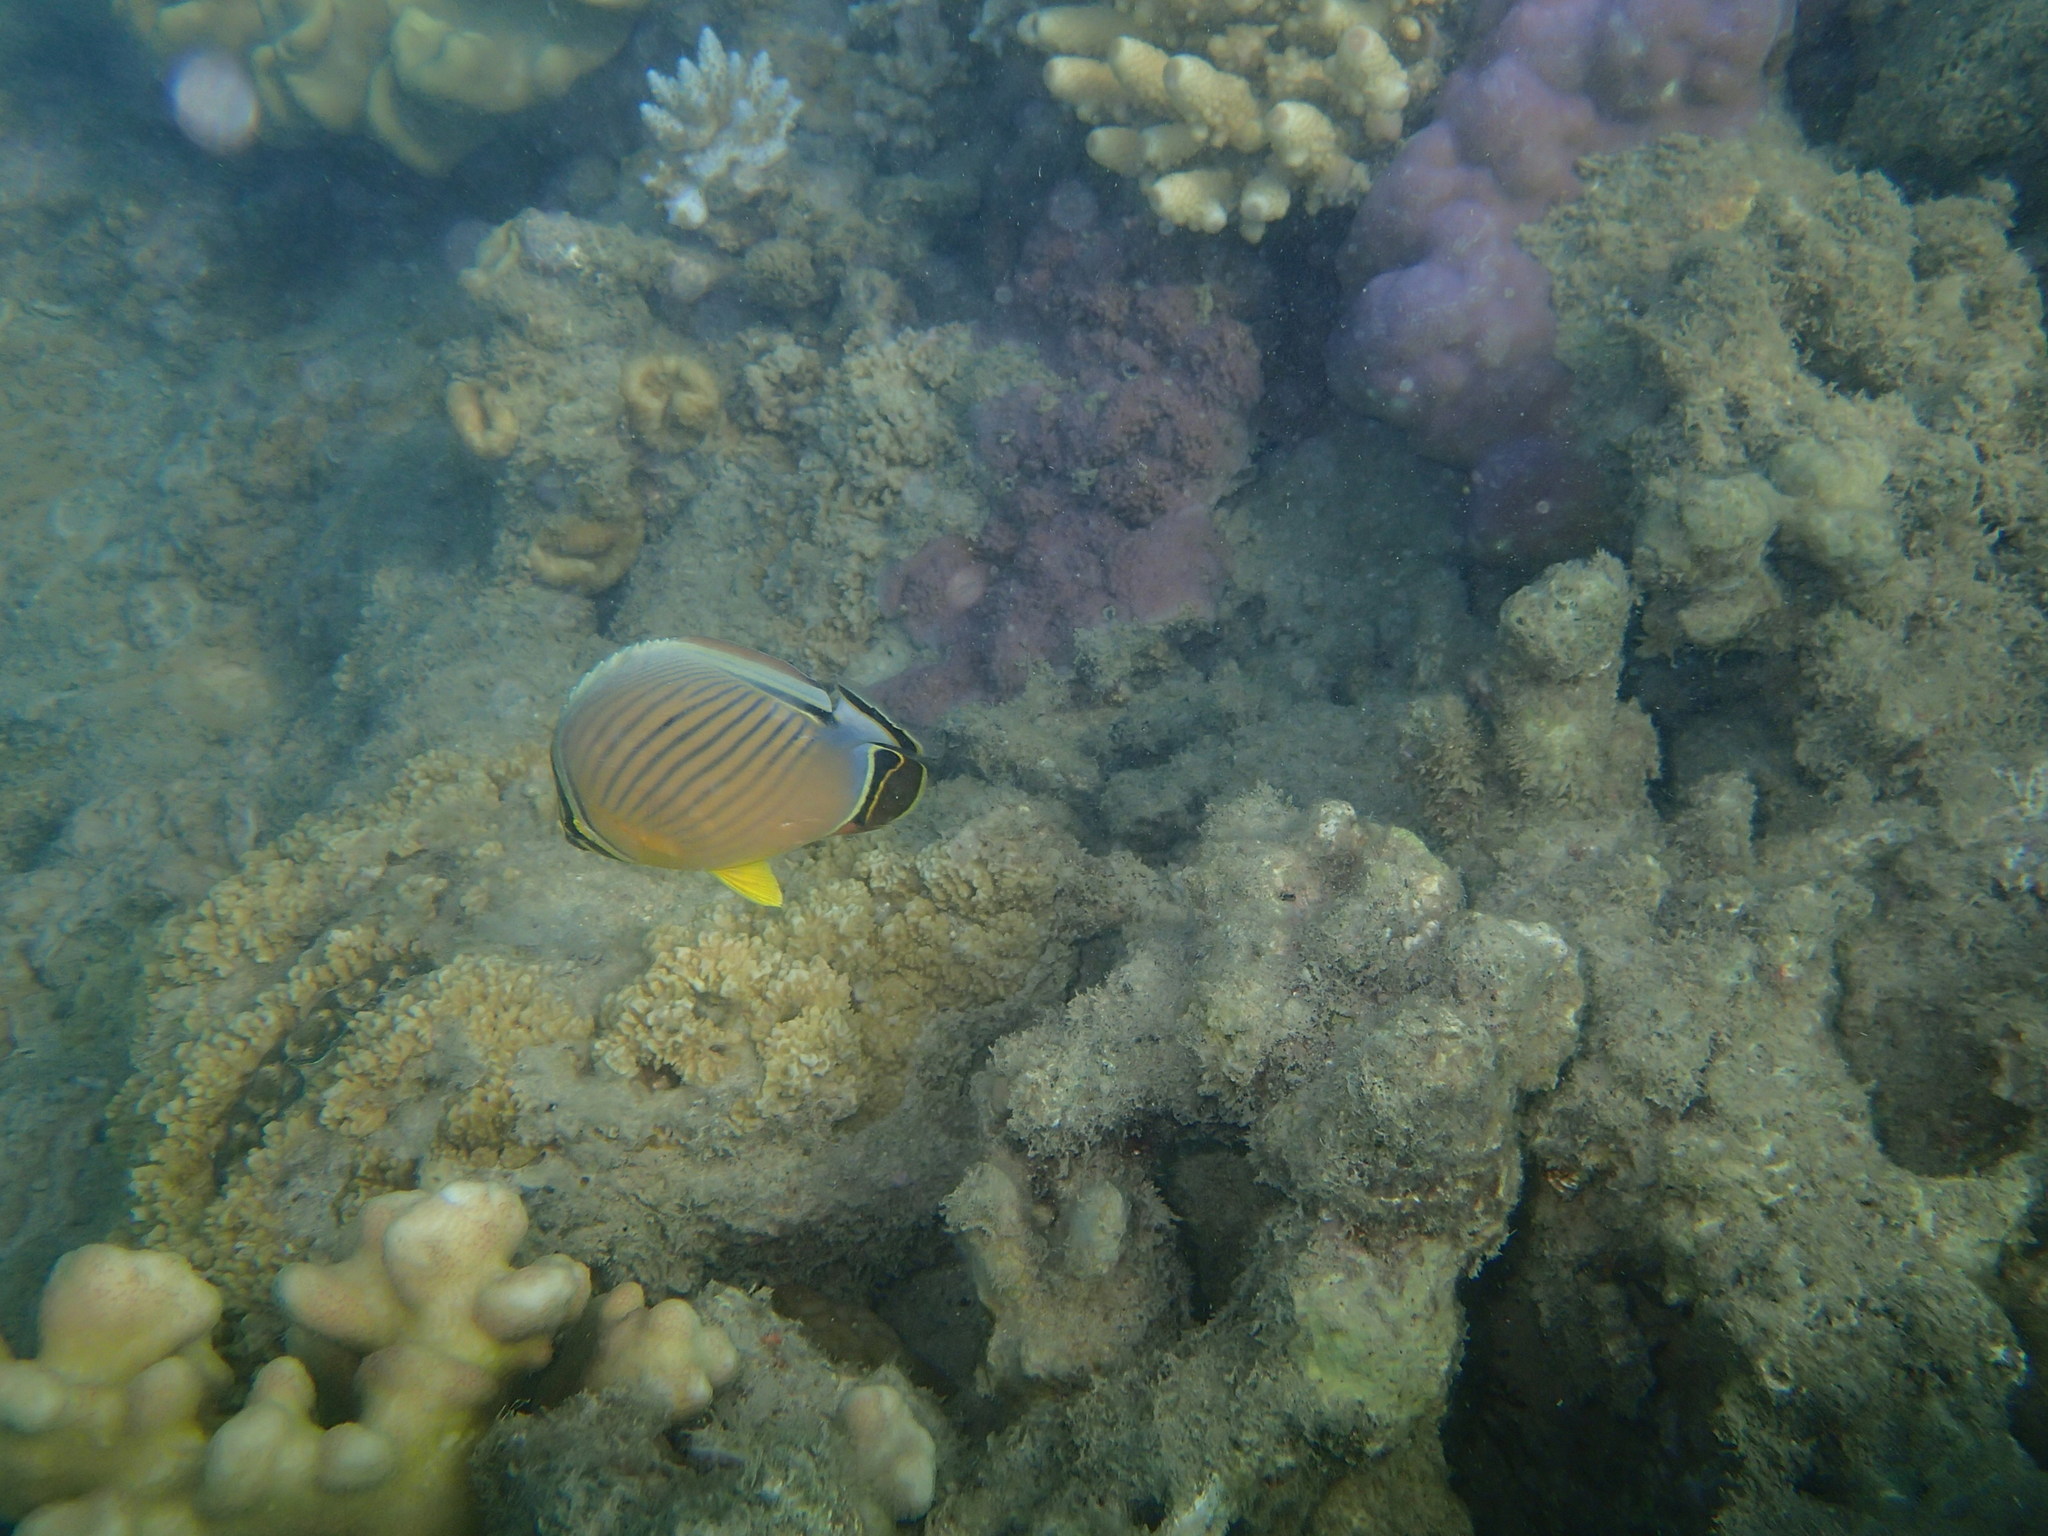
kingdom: Animalia
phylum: Chordata
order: Perciformes
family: Chaetodontidae
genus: Chaetodon
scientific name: Chaetodon lunulatus
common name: Redfin butterflyfish
